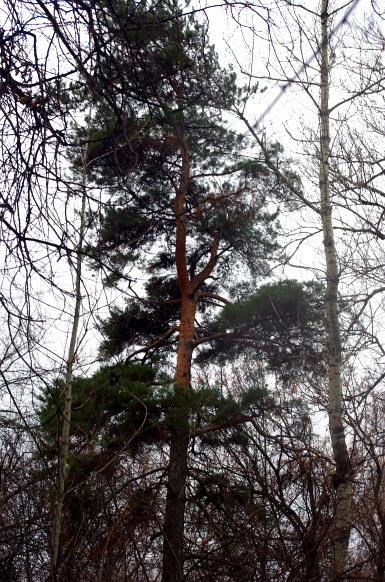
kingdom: Plantae
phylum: Tracheophyta
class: Pinopsida
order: Pinales
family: Pinaceae
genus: Pinus
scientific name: Pinus sylvestris
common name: Scots pine
